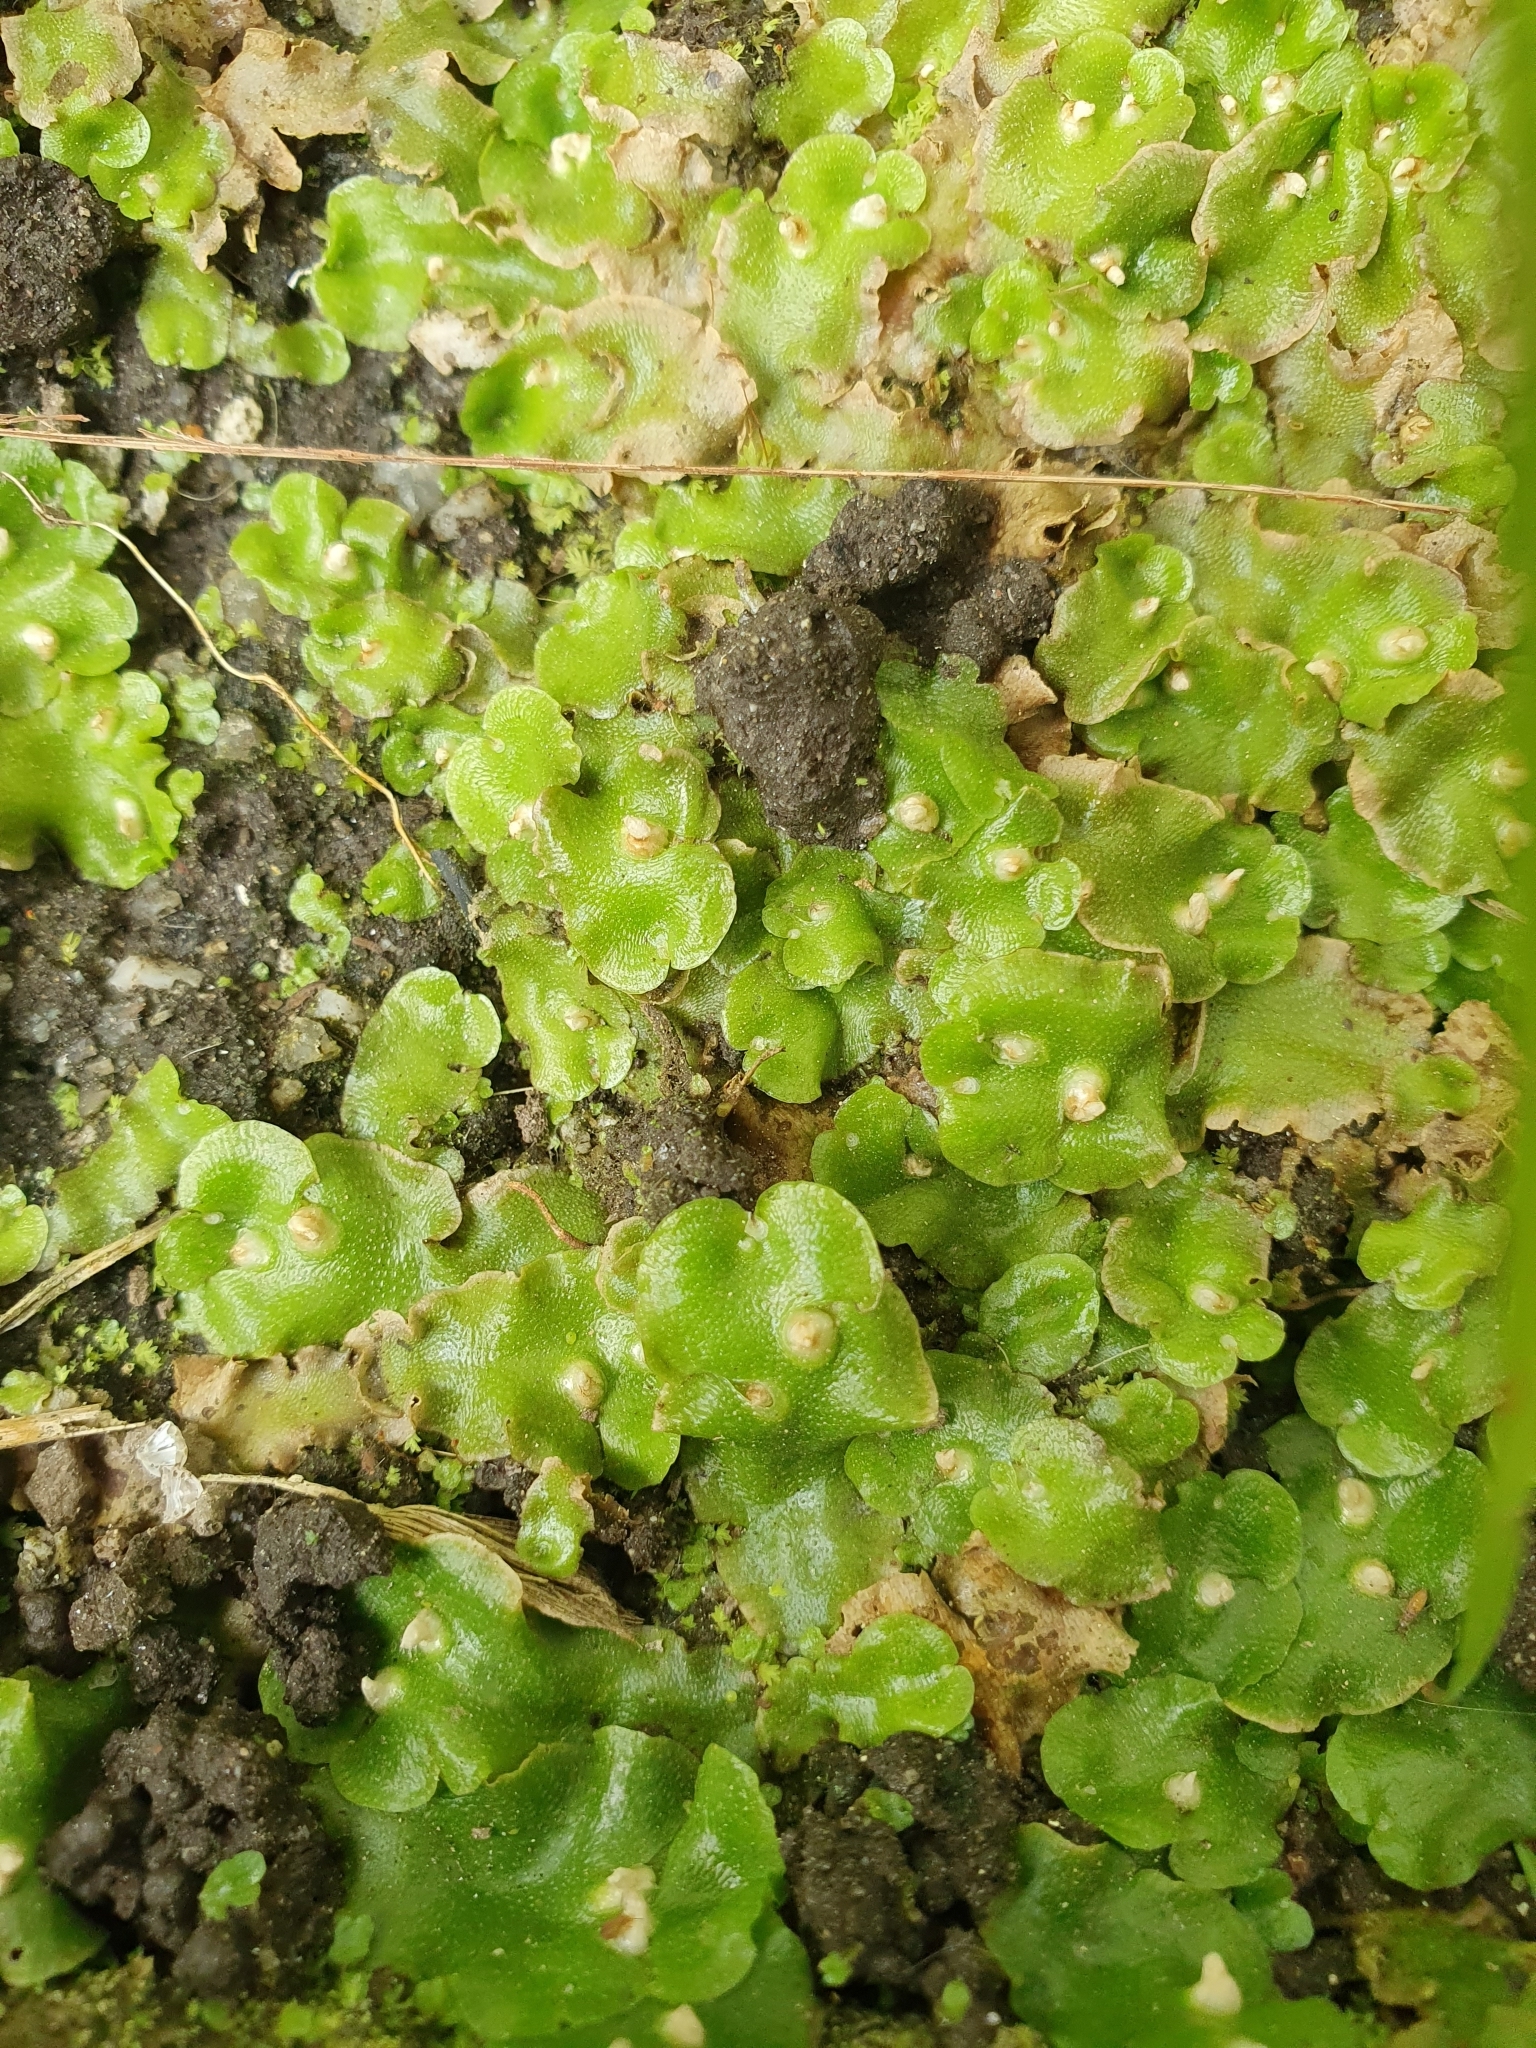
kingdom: Plantae
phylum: Marchantiophyta
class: Marchantiopsida
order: Lunulariales
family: Lunulariaceae
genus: Lunularia
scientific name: Lunularia cruciata
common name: Crescent-cup liverwort
